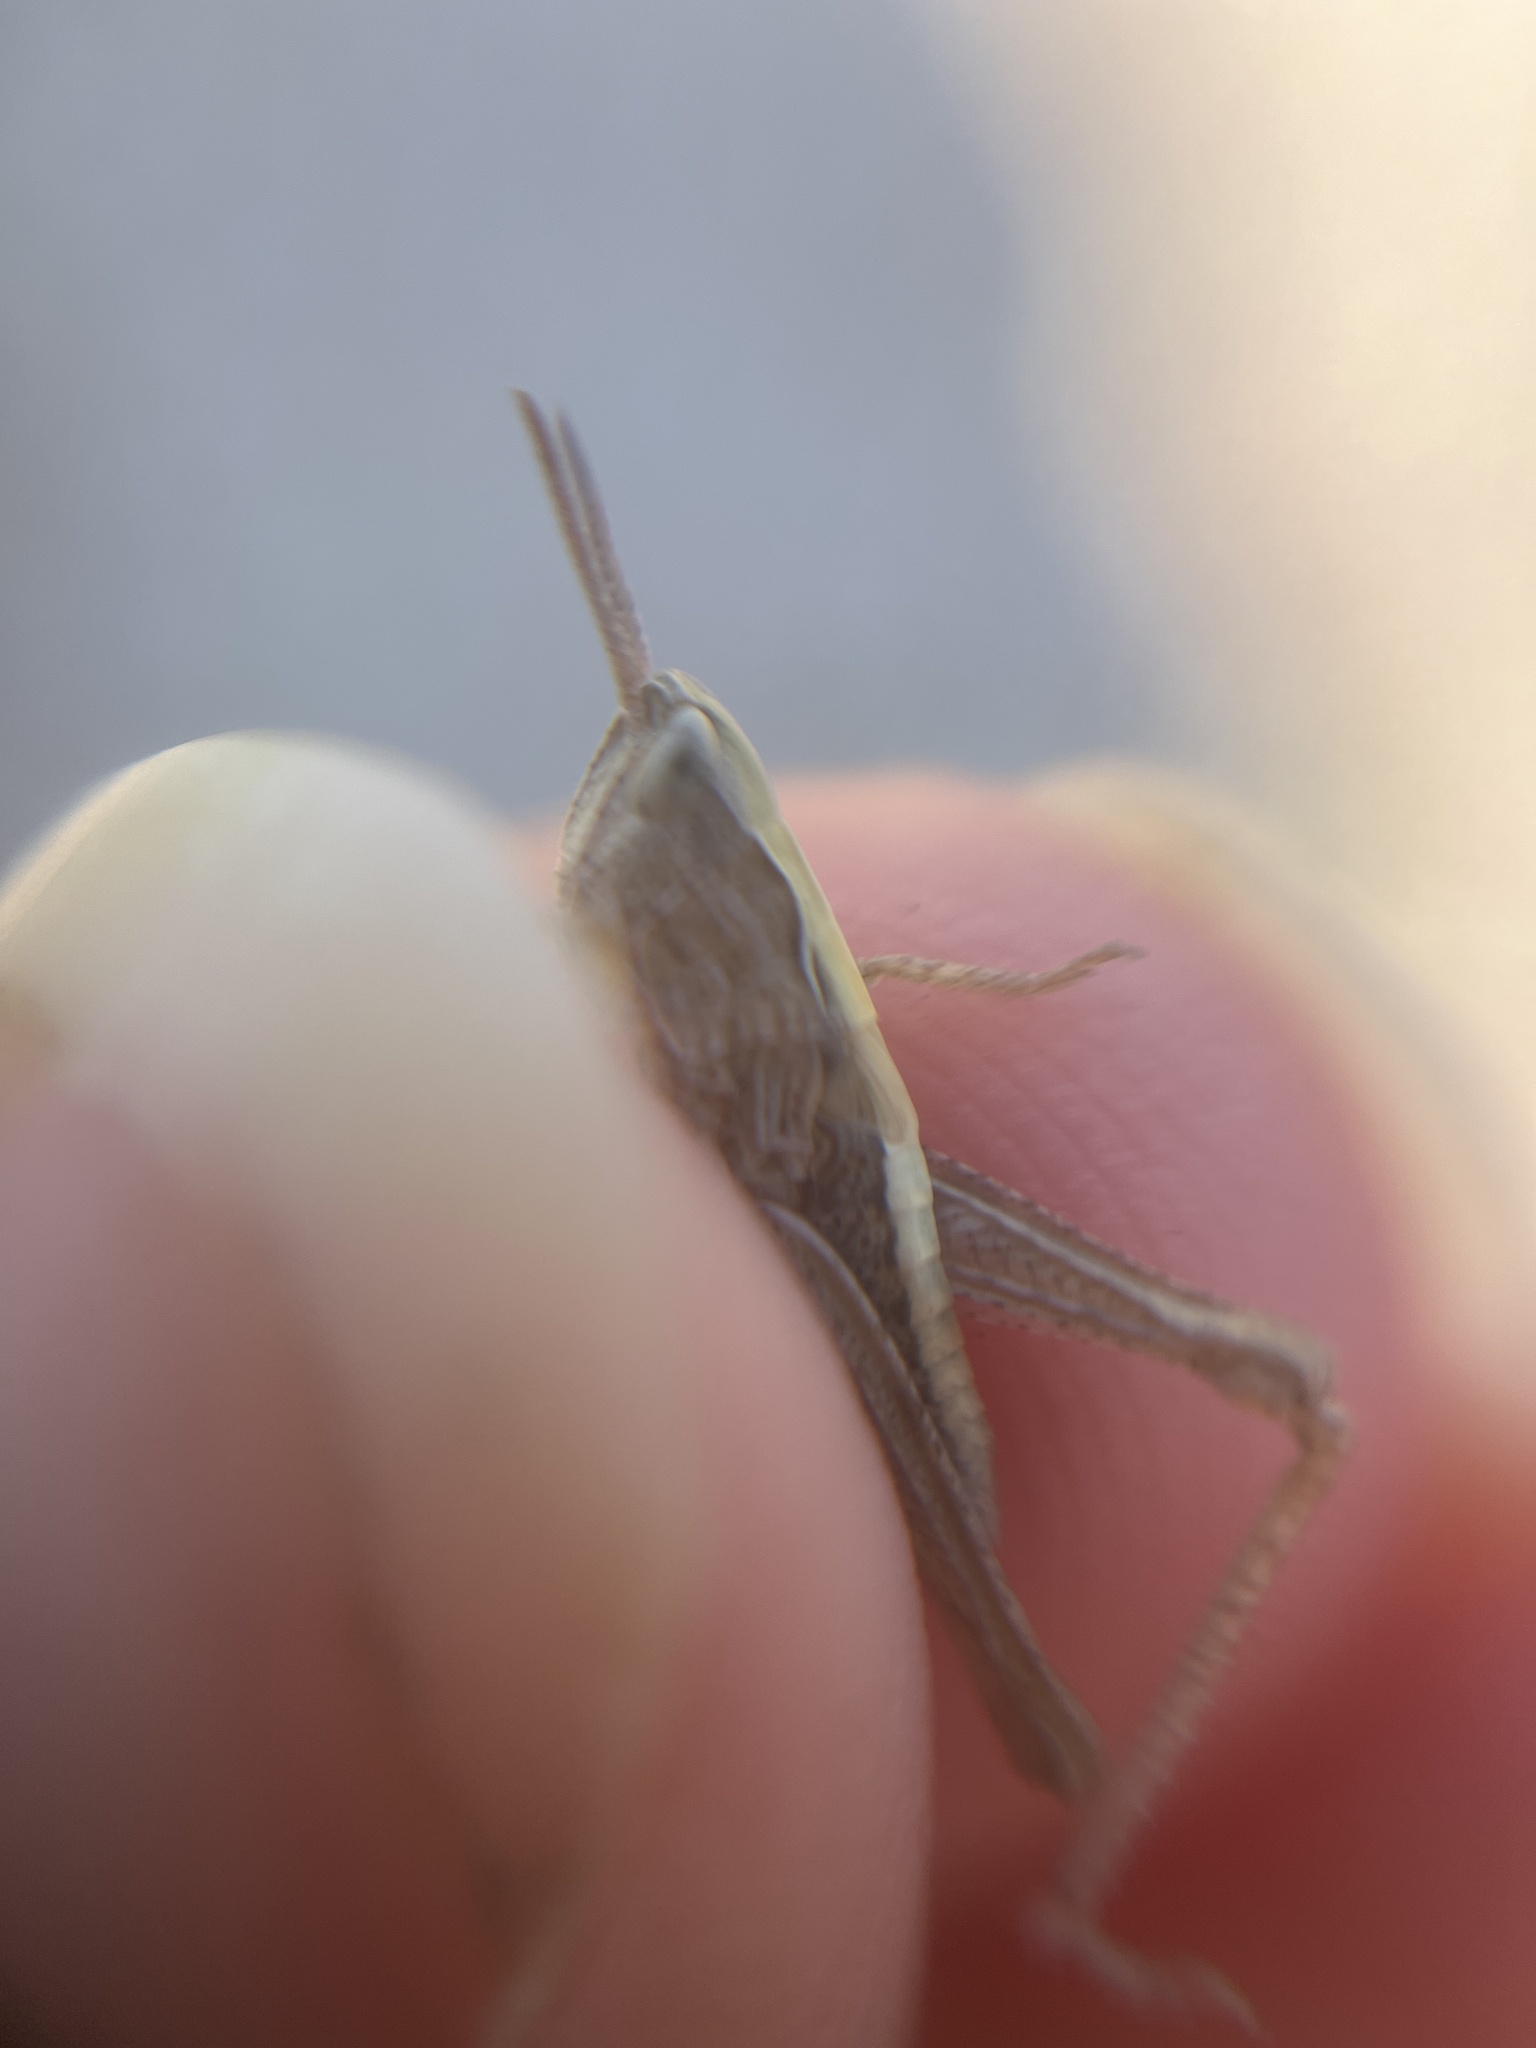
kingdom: Animalia
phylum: Arthropoda
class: Insecta
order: Orthoptera
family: Acrididae
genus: Chorthippus
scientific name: Chorthippus brunneus
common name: Field grasshopper
